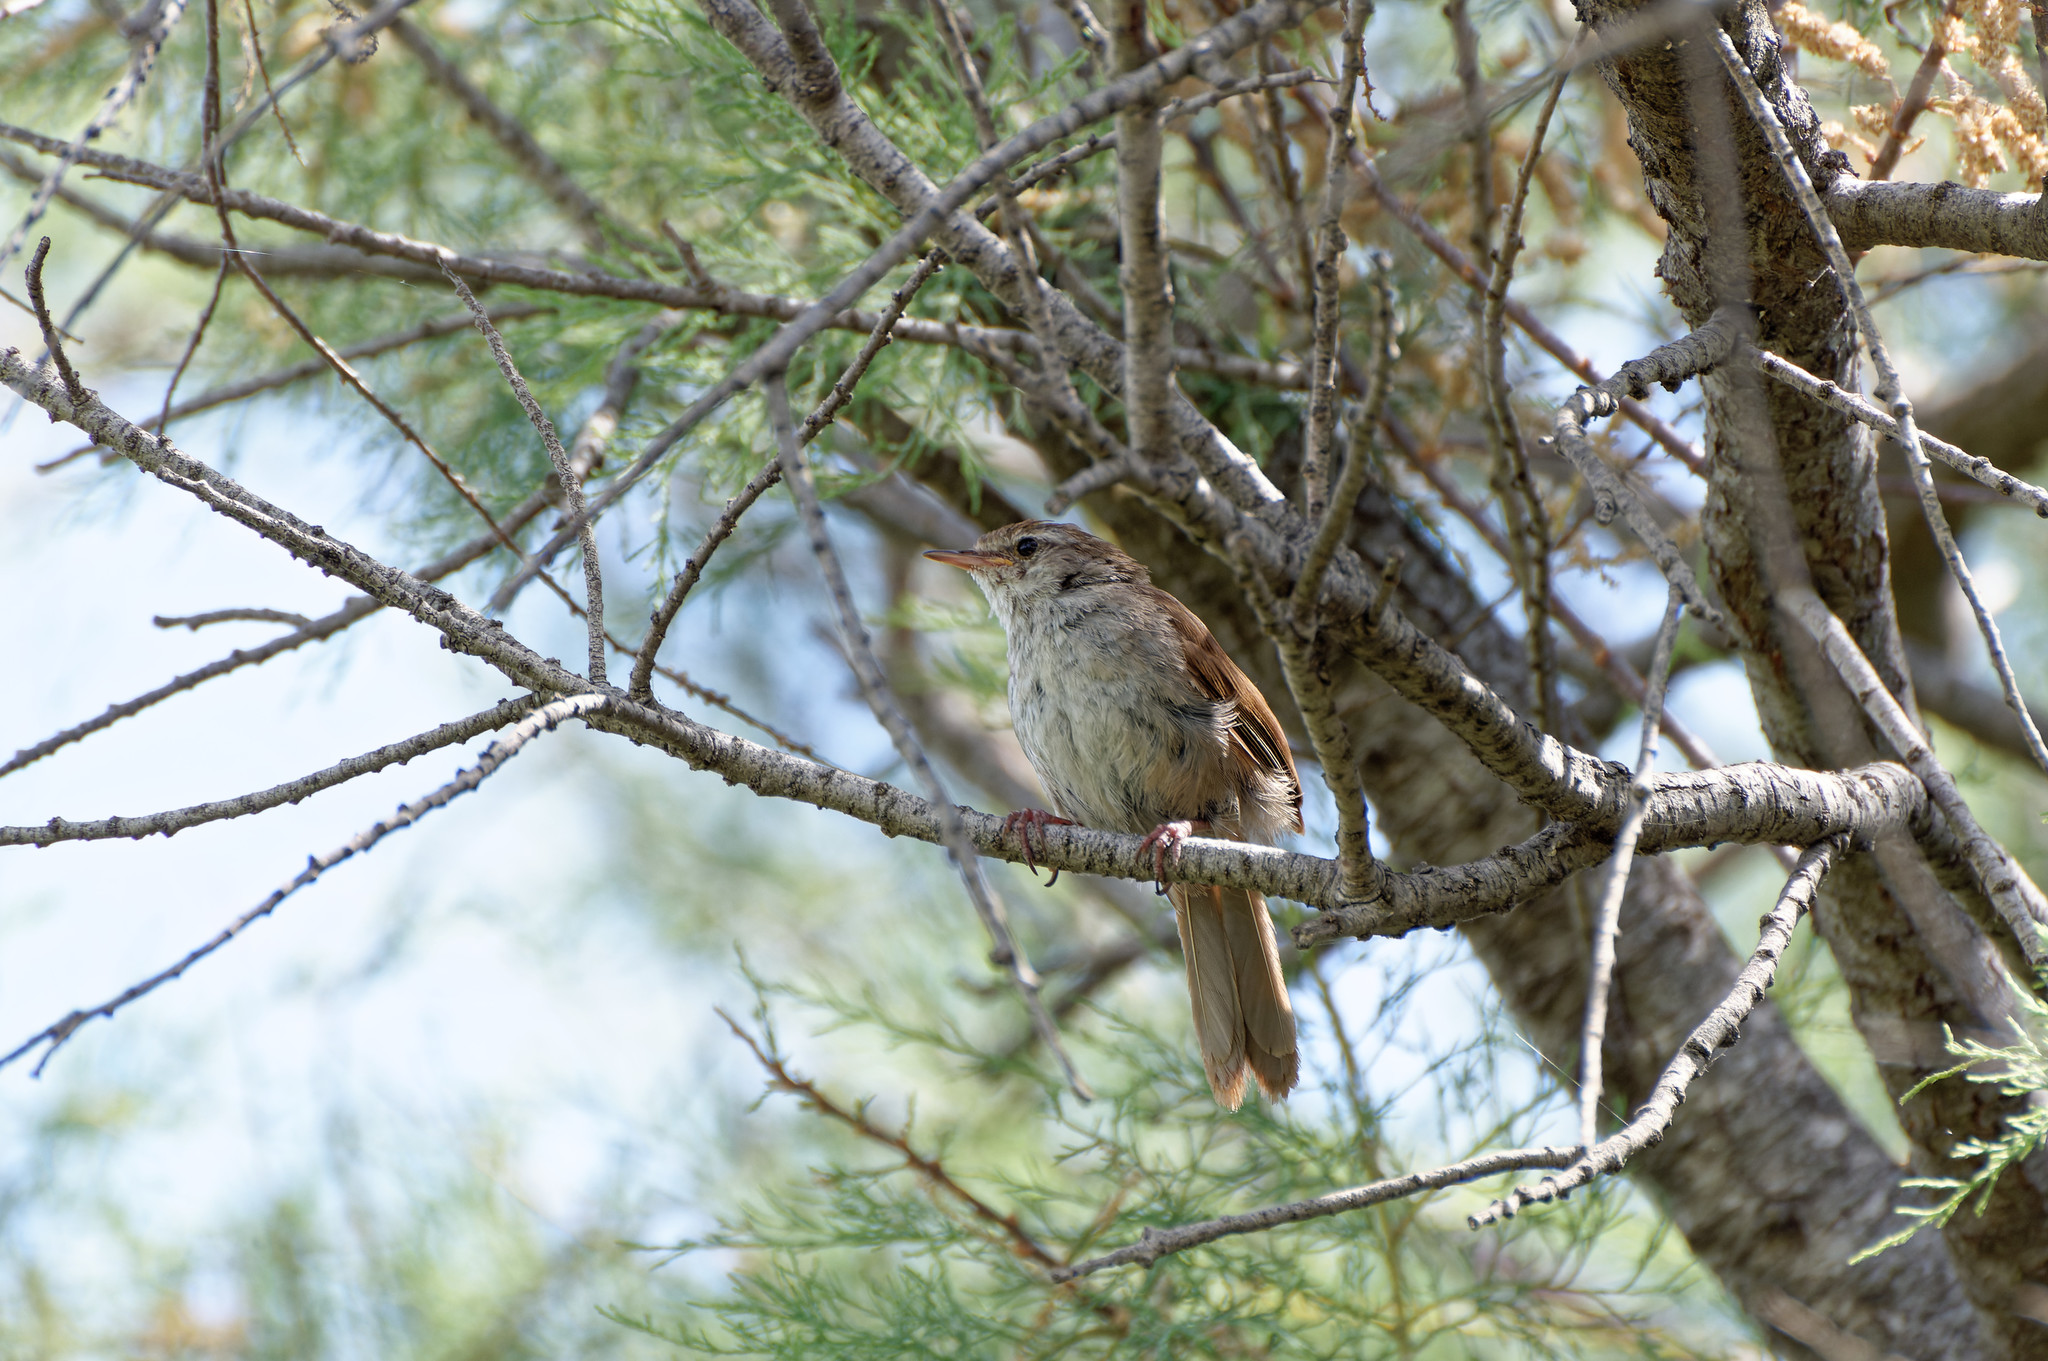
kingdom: Animalia
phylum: Chordata
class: Aves
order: Passeriformes
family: Cettiidae
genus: Cettia
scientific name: Cettia cetti
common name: Cetti's warbler
